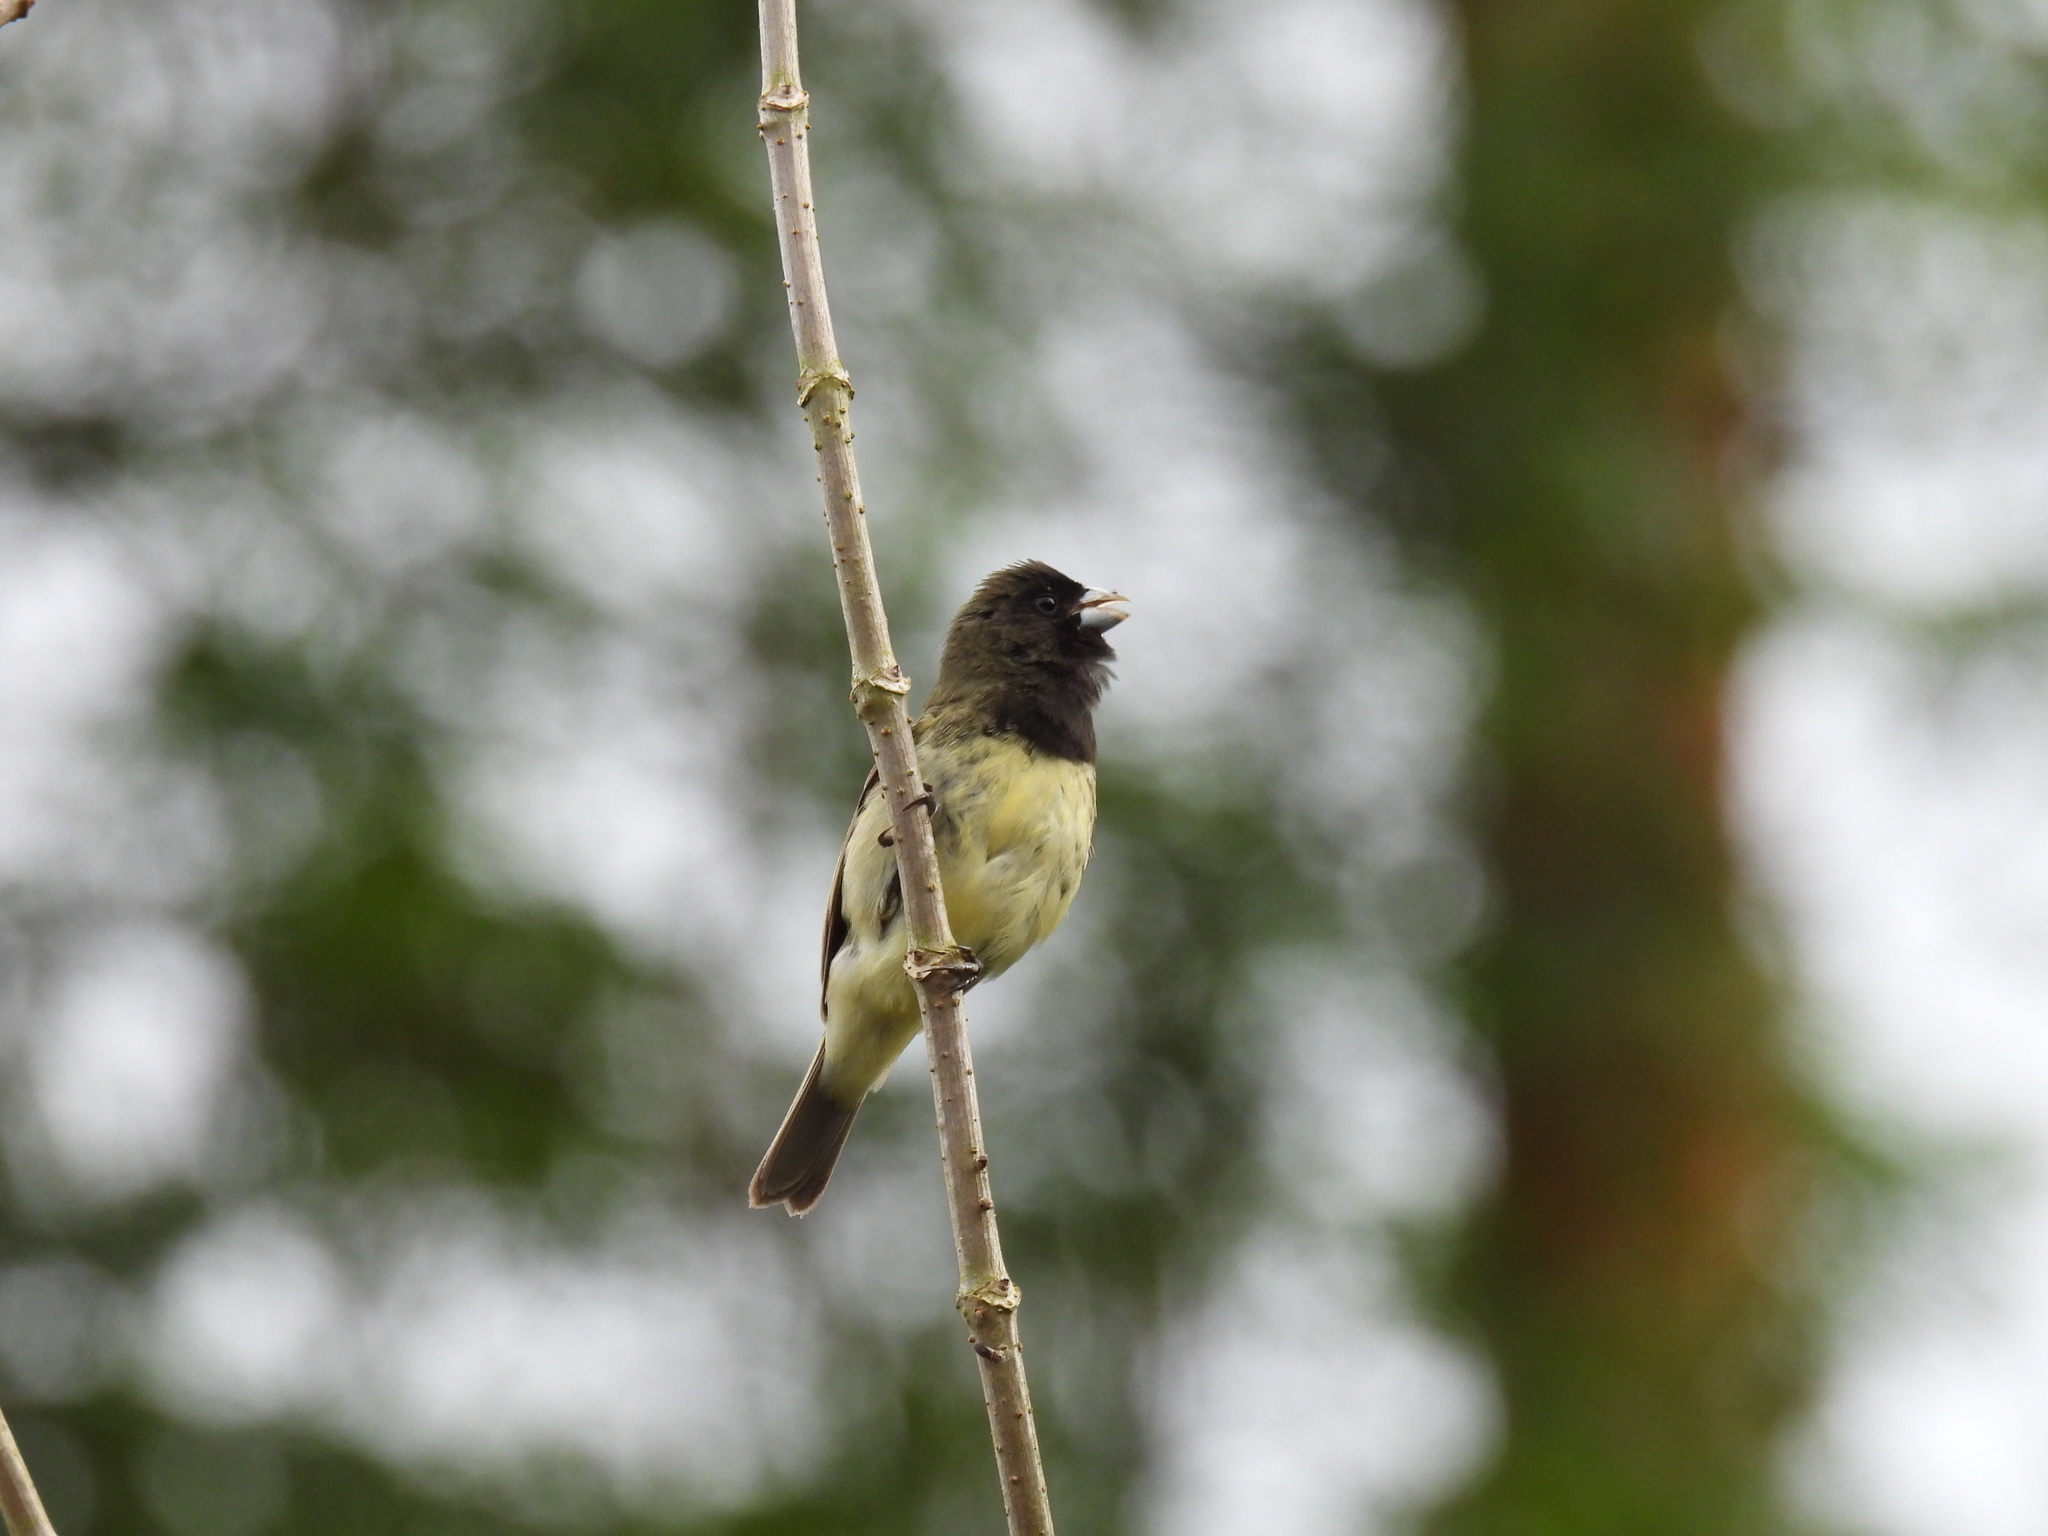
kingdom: Animalia
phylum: Chordata
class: Aves
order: Passeriformes
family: Thraupidae
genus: Sporophila
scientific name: Sporophila nigricollis
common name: Yellow-bellied seedeater
